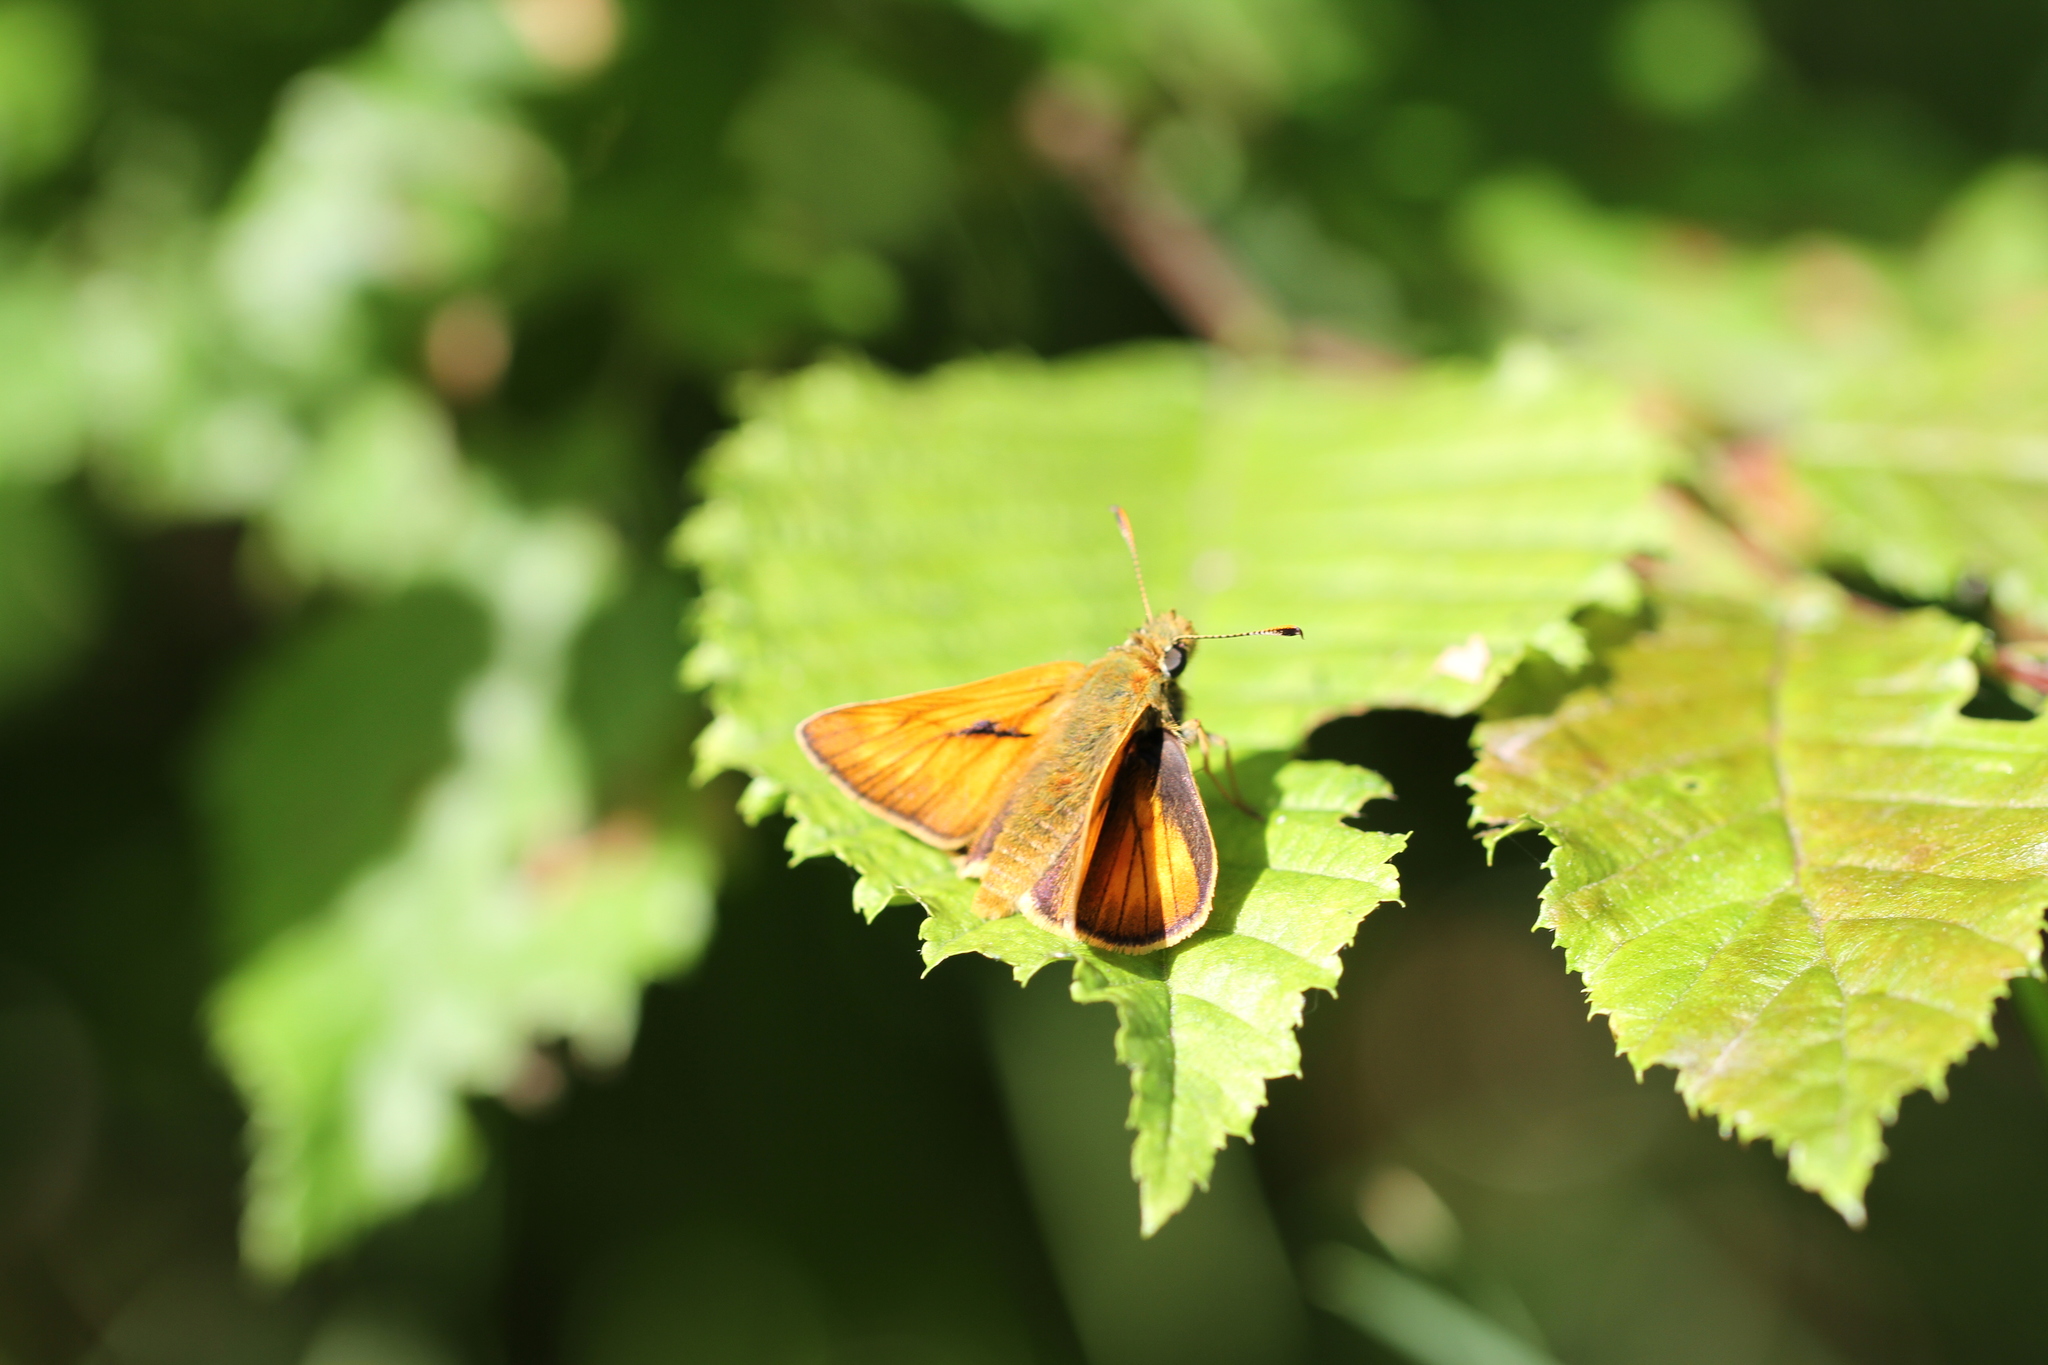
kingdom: Animalia
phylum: Arthropoda
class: Insecta
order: Lepidoptera
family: Hesperiidae
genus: Ochlodes
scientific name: Ochlodes venata
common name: Large skipper
